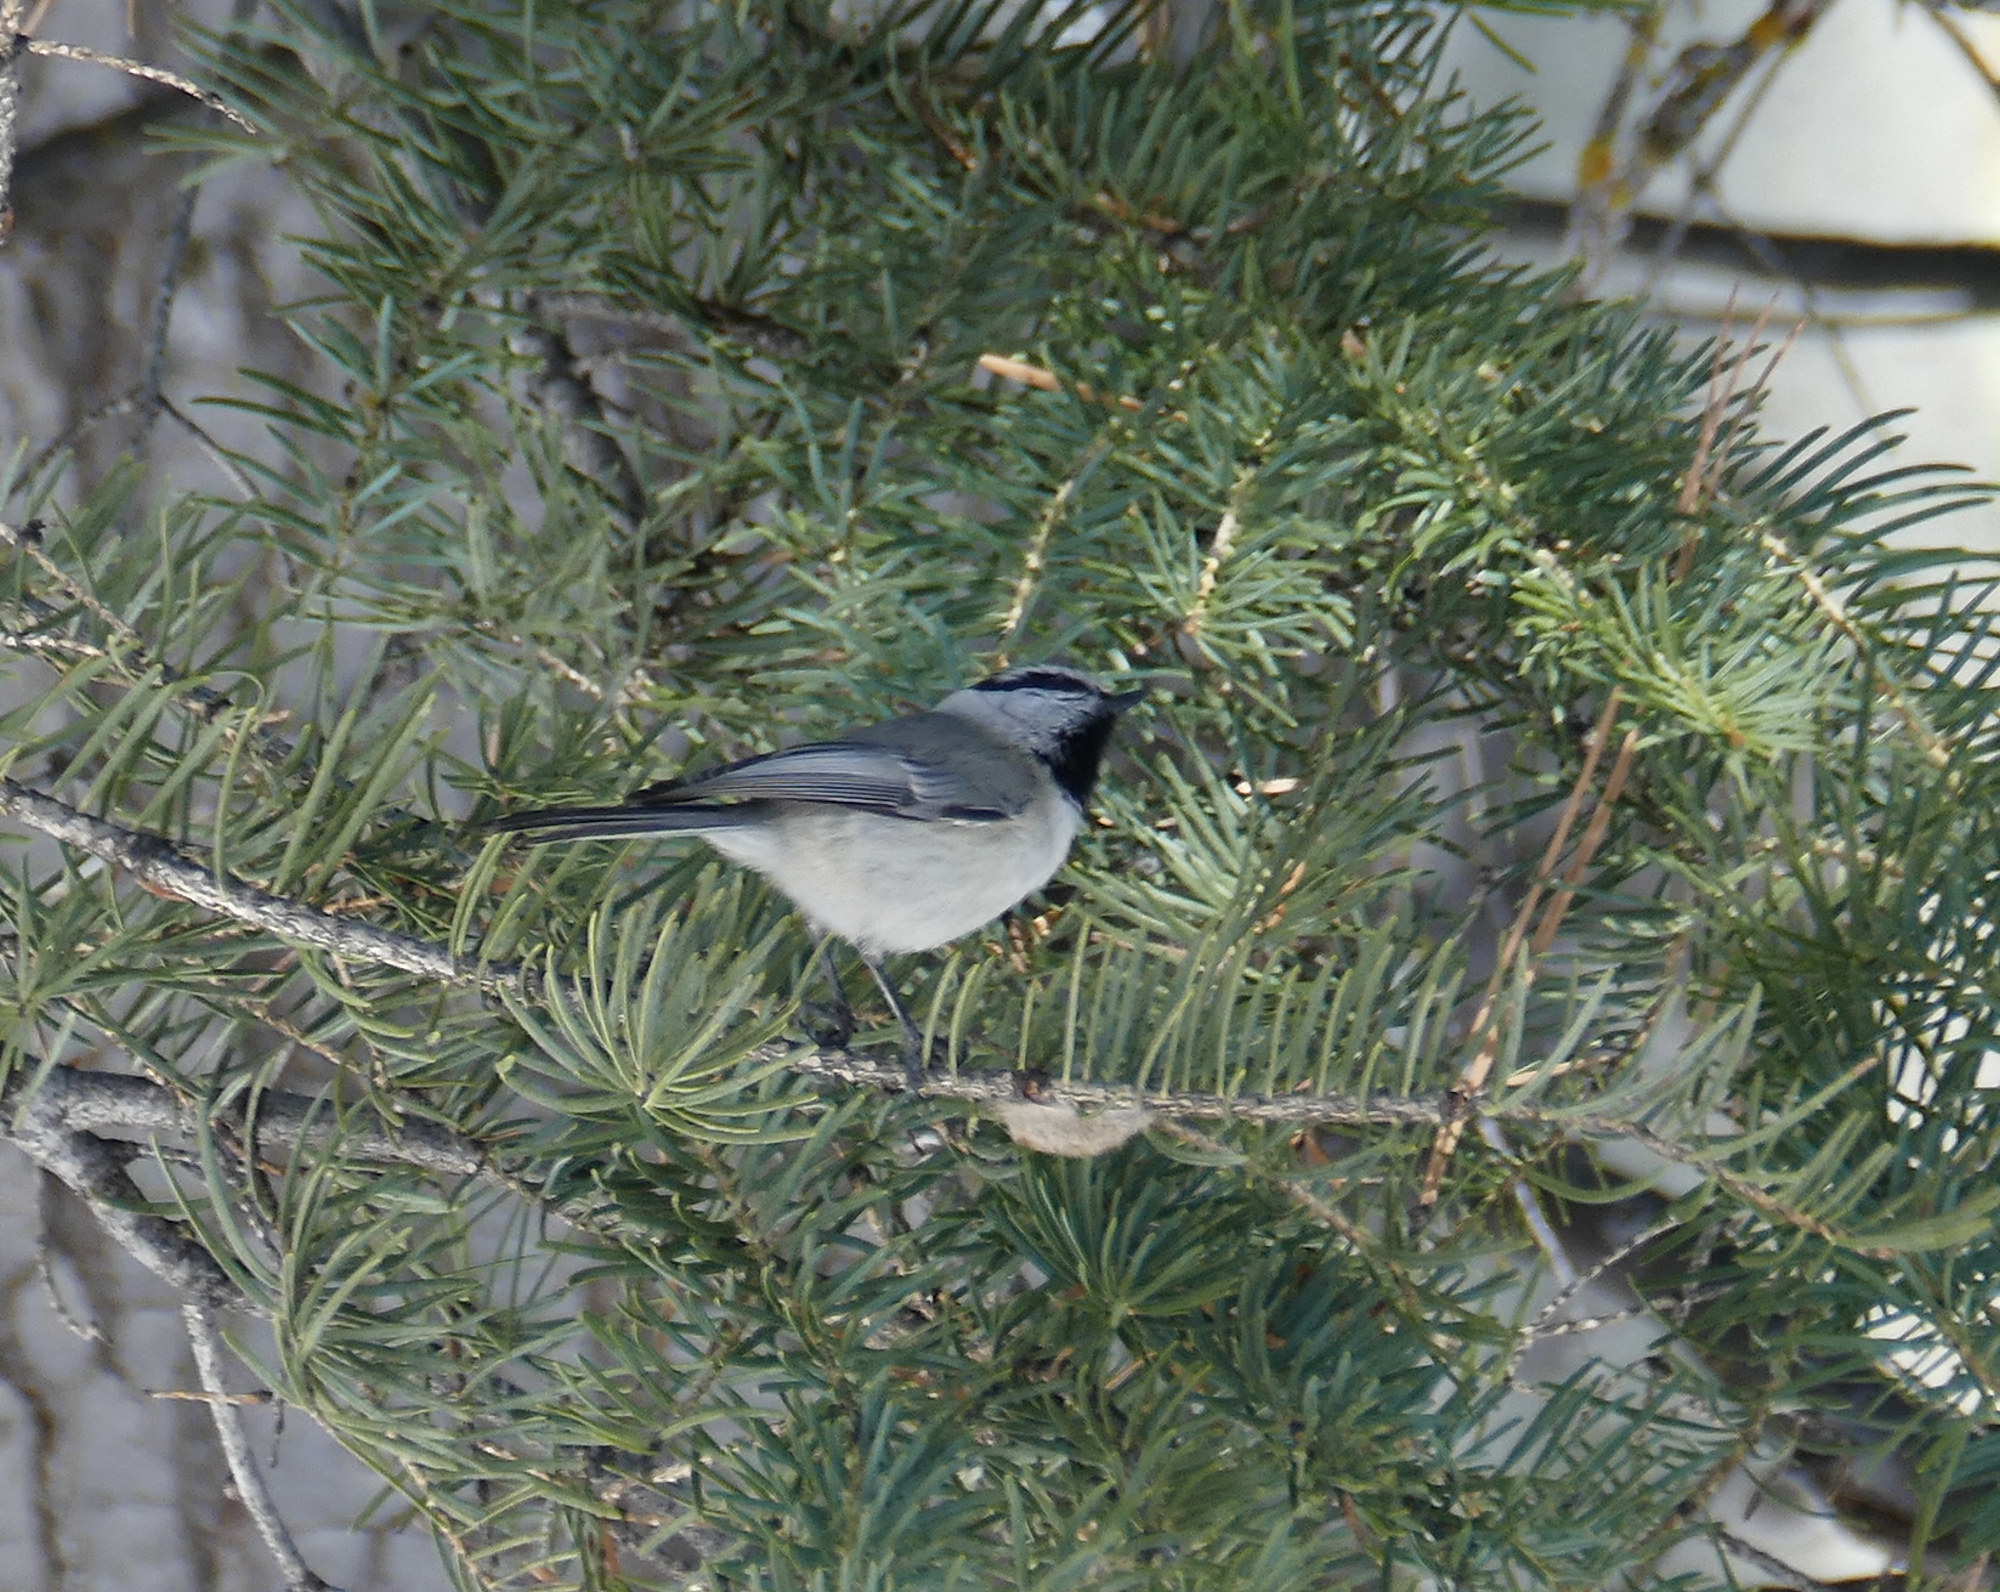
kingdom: Animalia
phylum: Chordata
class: Aves
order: Passeriformes
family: Paridae
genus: Poecile
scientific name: Poecile gambeli
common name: Mountain chickadee
